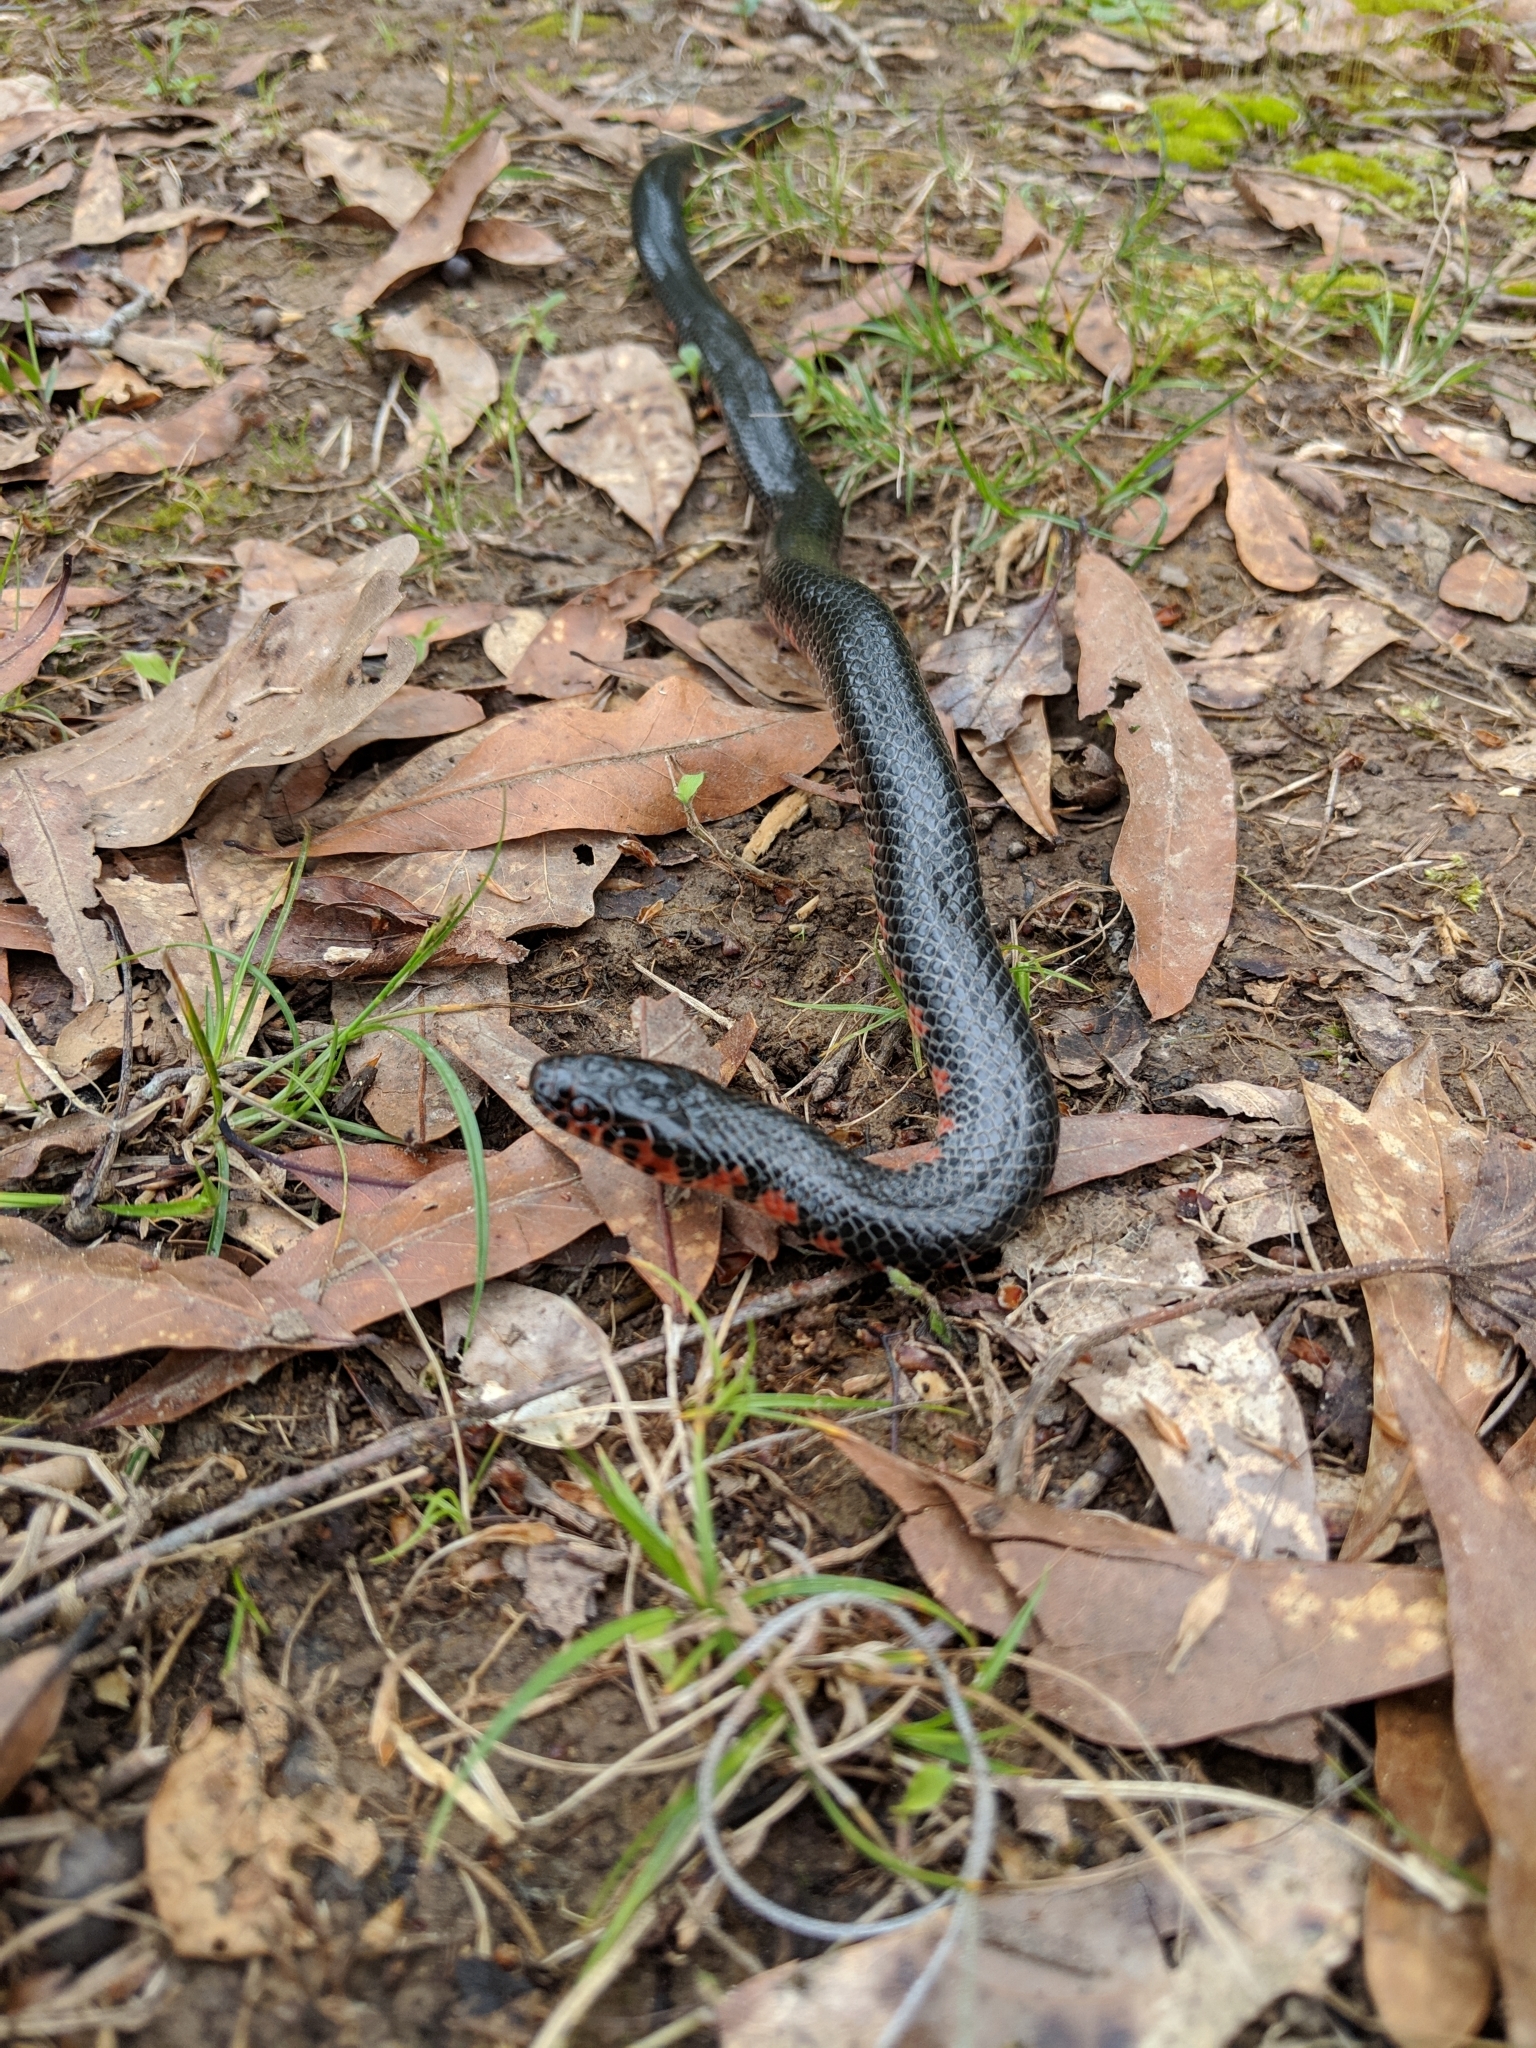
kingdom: Animalia
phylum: Chordata
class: Squamata
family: Colubridae
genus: Farancia
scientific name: Farancia abacura
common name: Mud snake
